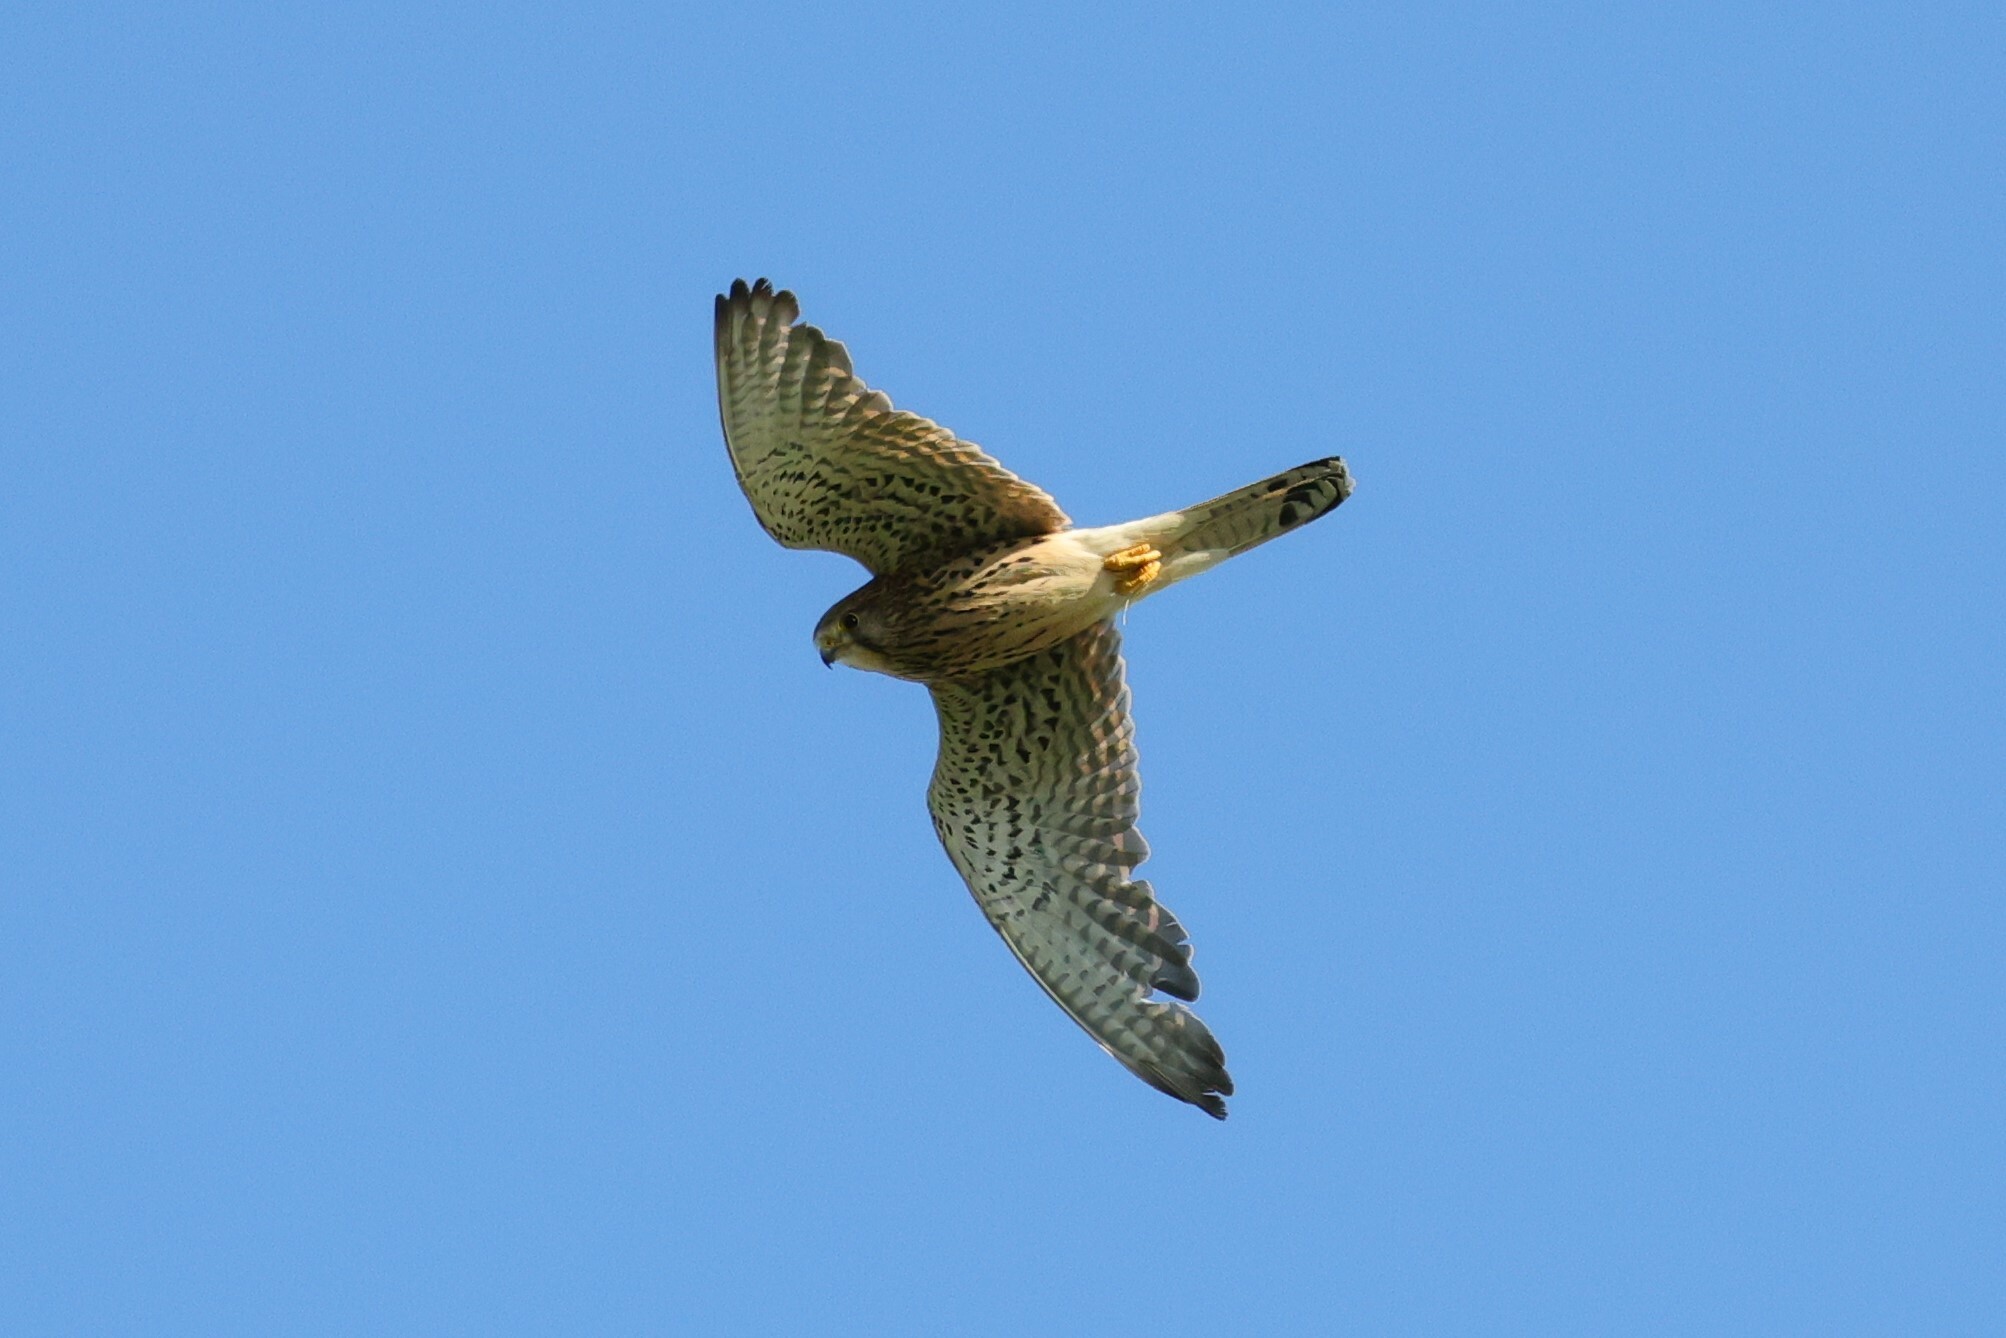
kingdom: Animalia
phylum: Chordata
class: Aves
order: Falconiformes
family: Falconidae
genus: Falco
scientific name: Falco tinnunculus
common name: Common kestrel
